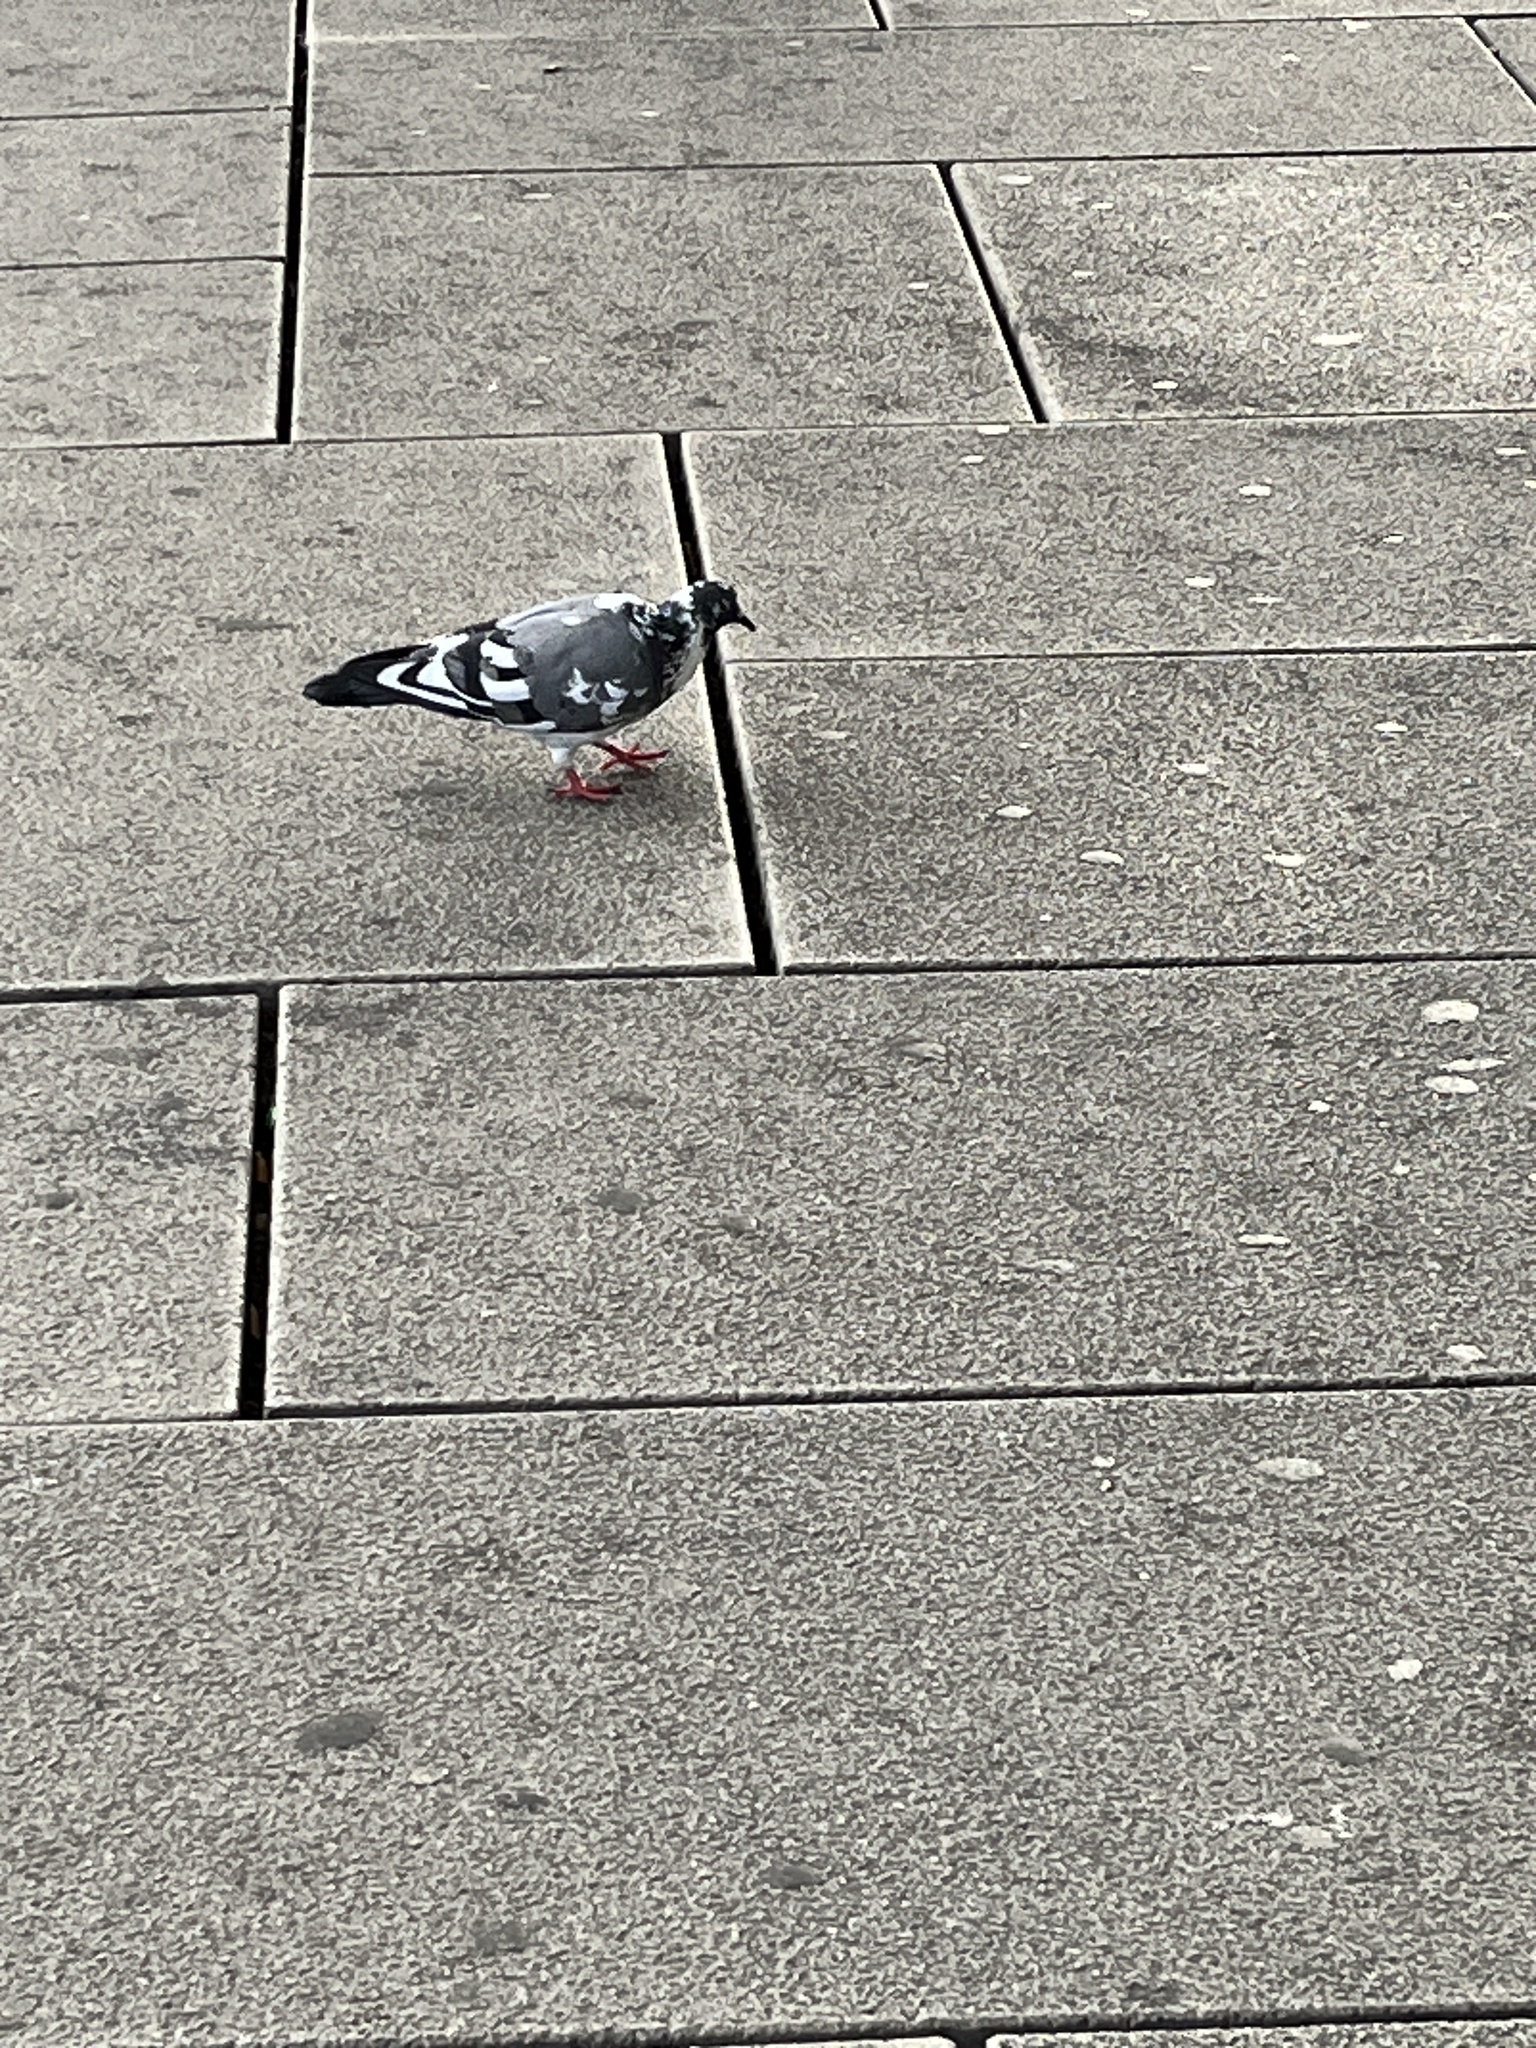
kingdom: Animalia
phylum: Chordata
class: Aves
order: Columbiformes
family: Columbidae
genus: Columba
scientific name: Columba livia
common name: Rock pigeon
